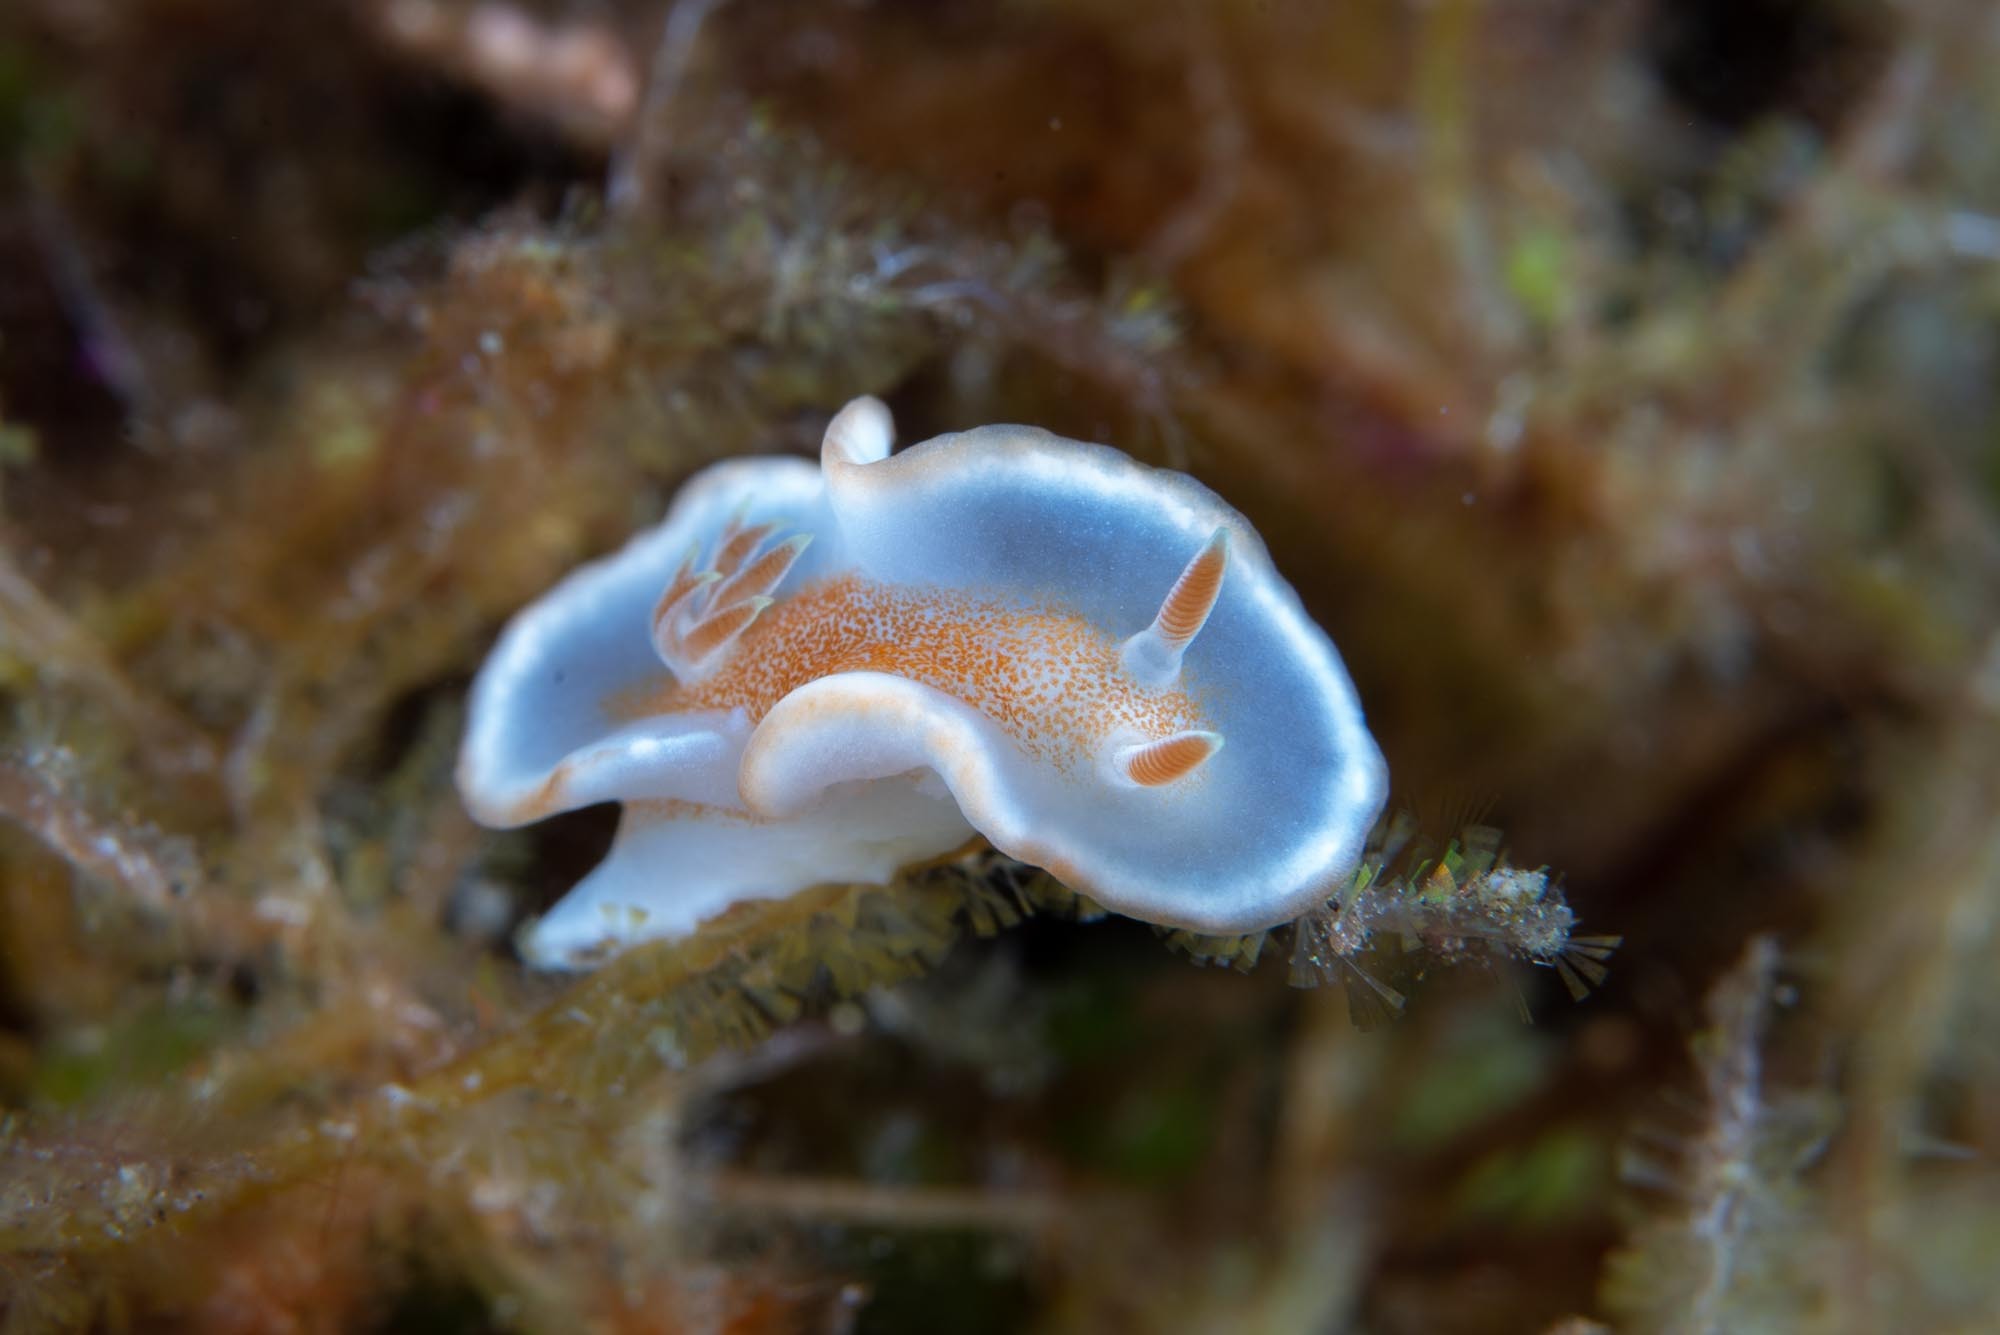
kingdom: Animalia
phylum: Mollusca
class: Gastropoda
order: Nudibranchia
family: Chromodorididae
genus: Glossodoris
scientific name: Glossodoris rufomarginata
